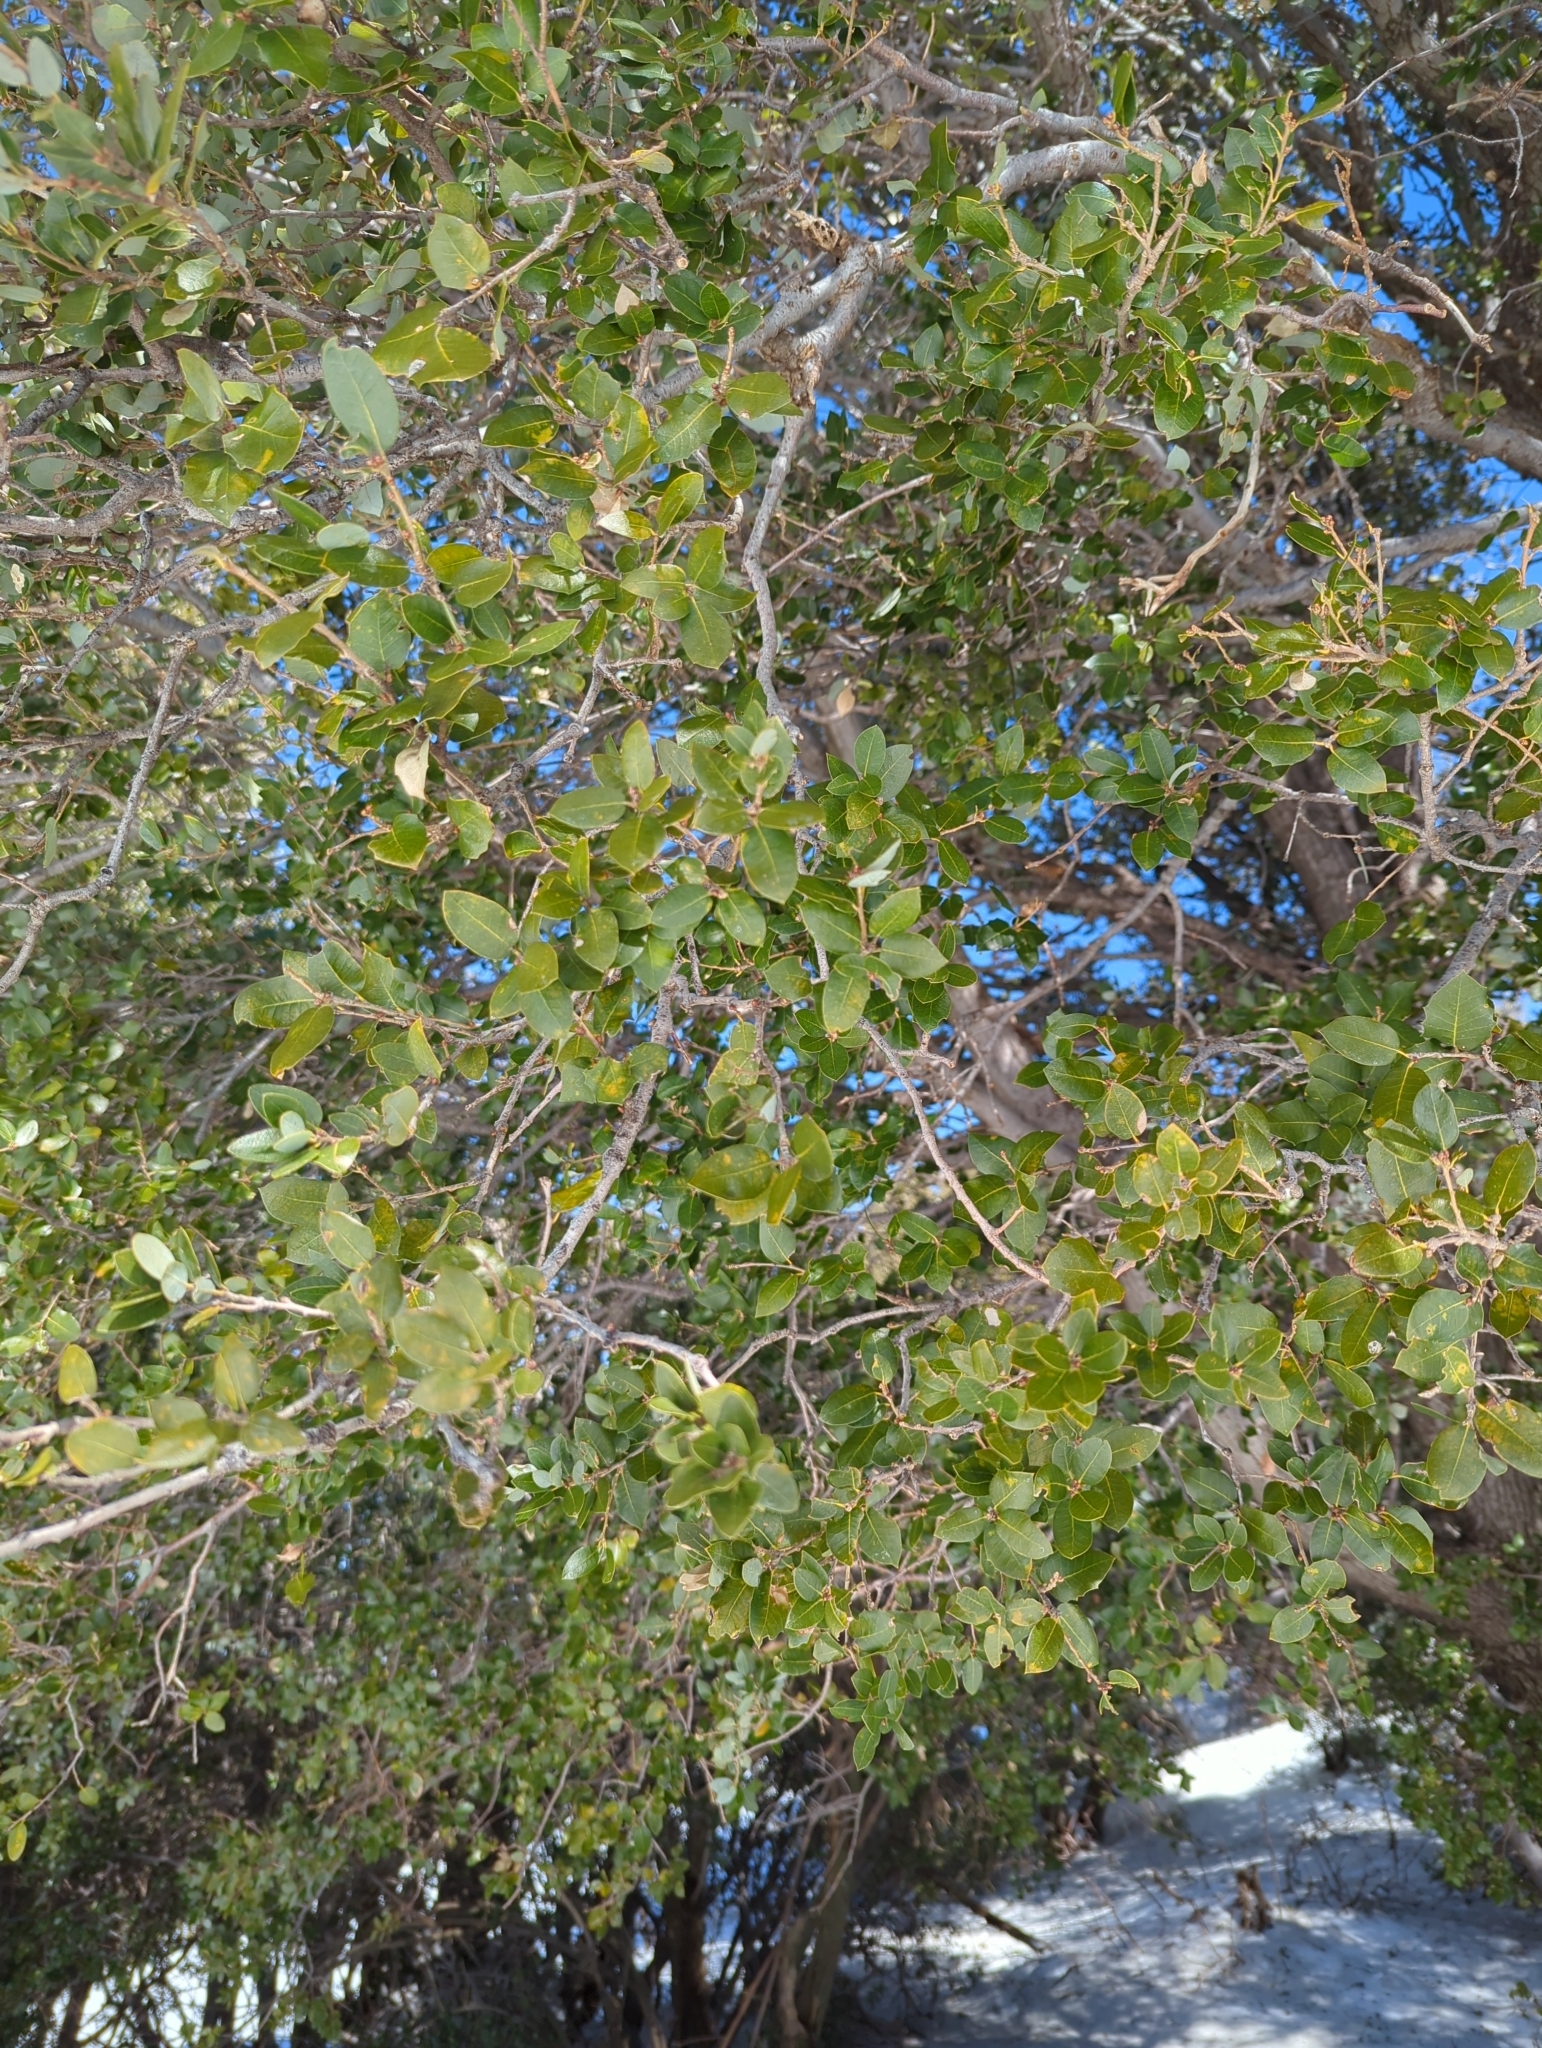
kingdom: Plantae
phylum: Tracheophyta
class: Magnoliopsida
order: Fagales
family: Fagaceae
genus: Quercus
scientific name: Quercus chrysolepis
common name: Canyon live oak
